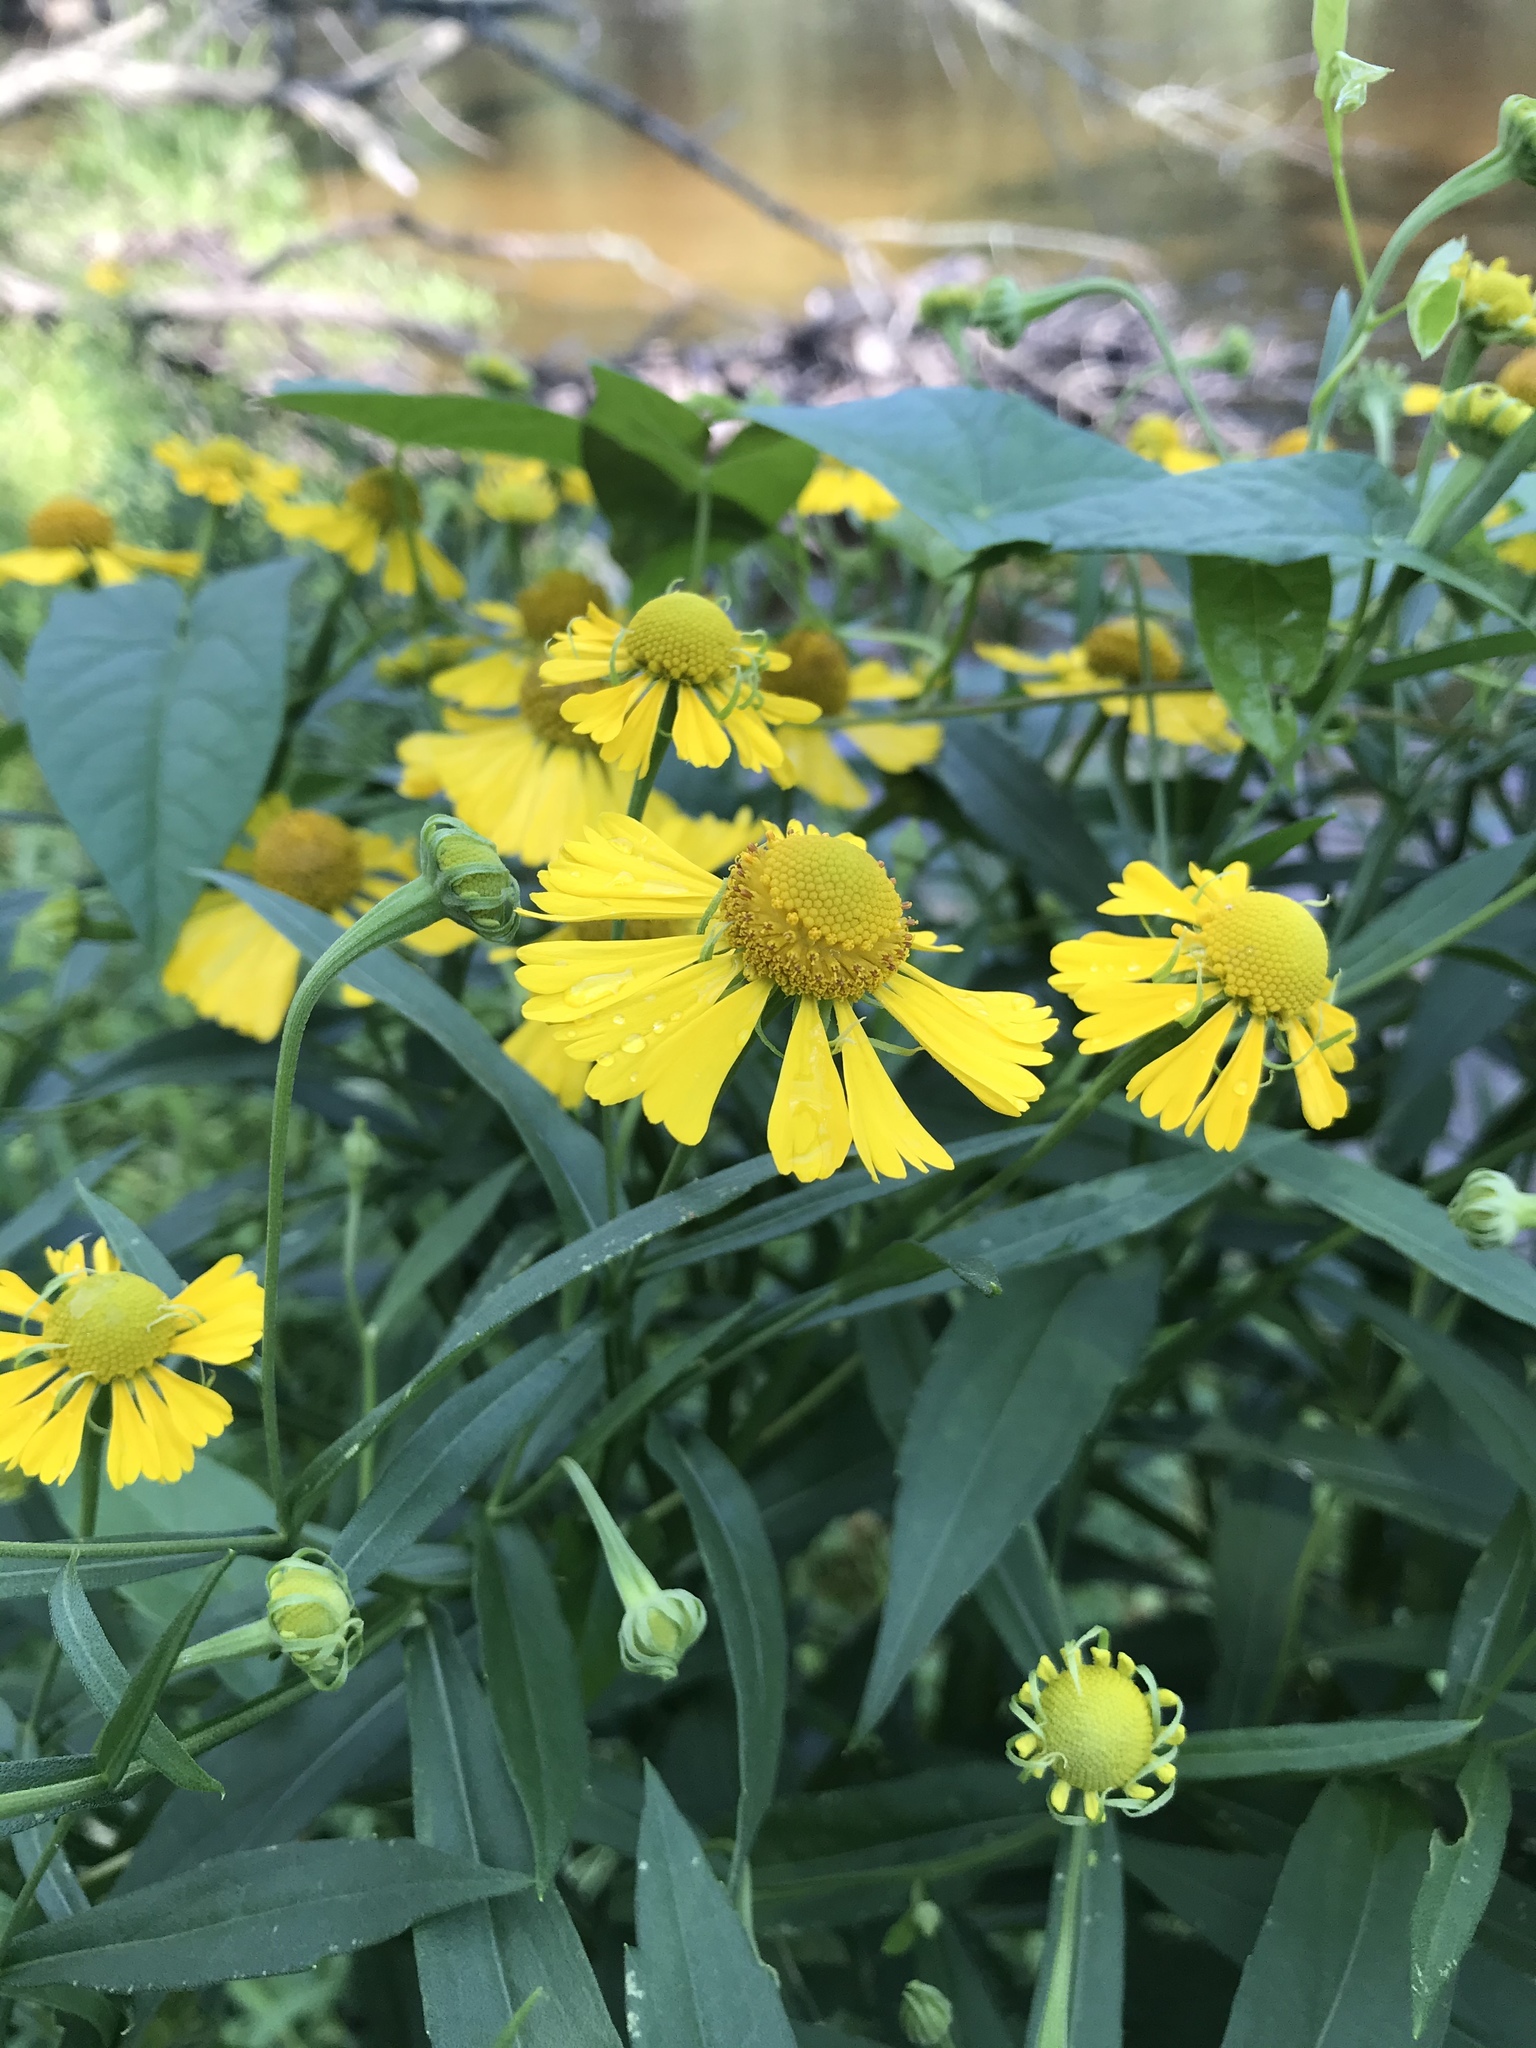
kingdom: Plantae
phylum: Tracheophyta
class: Magnoliopsida
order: Asterales
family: Asteraceae
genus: Helenium
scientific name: Helenium autumnale
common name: Sneezeweed
